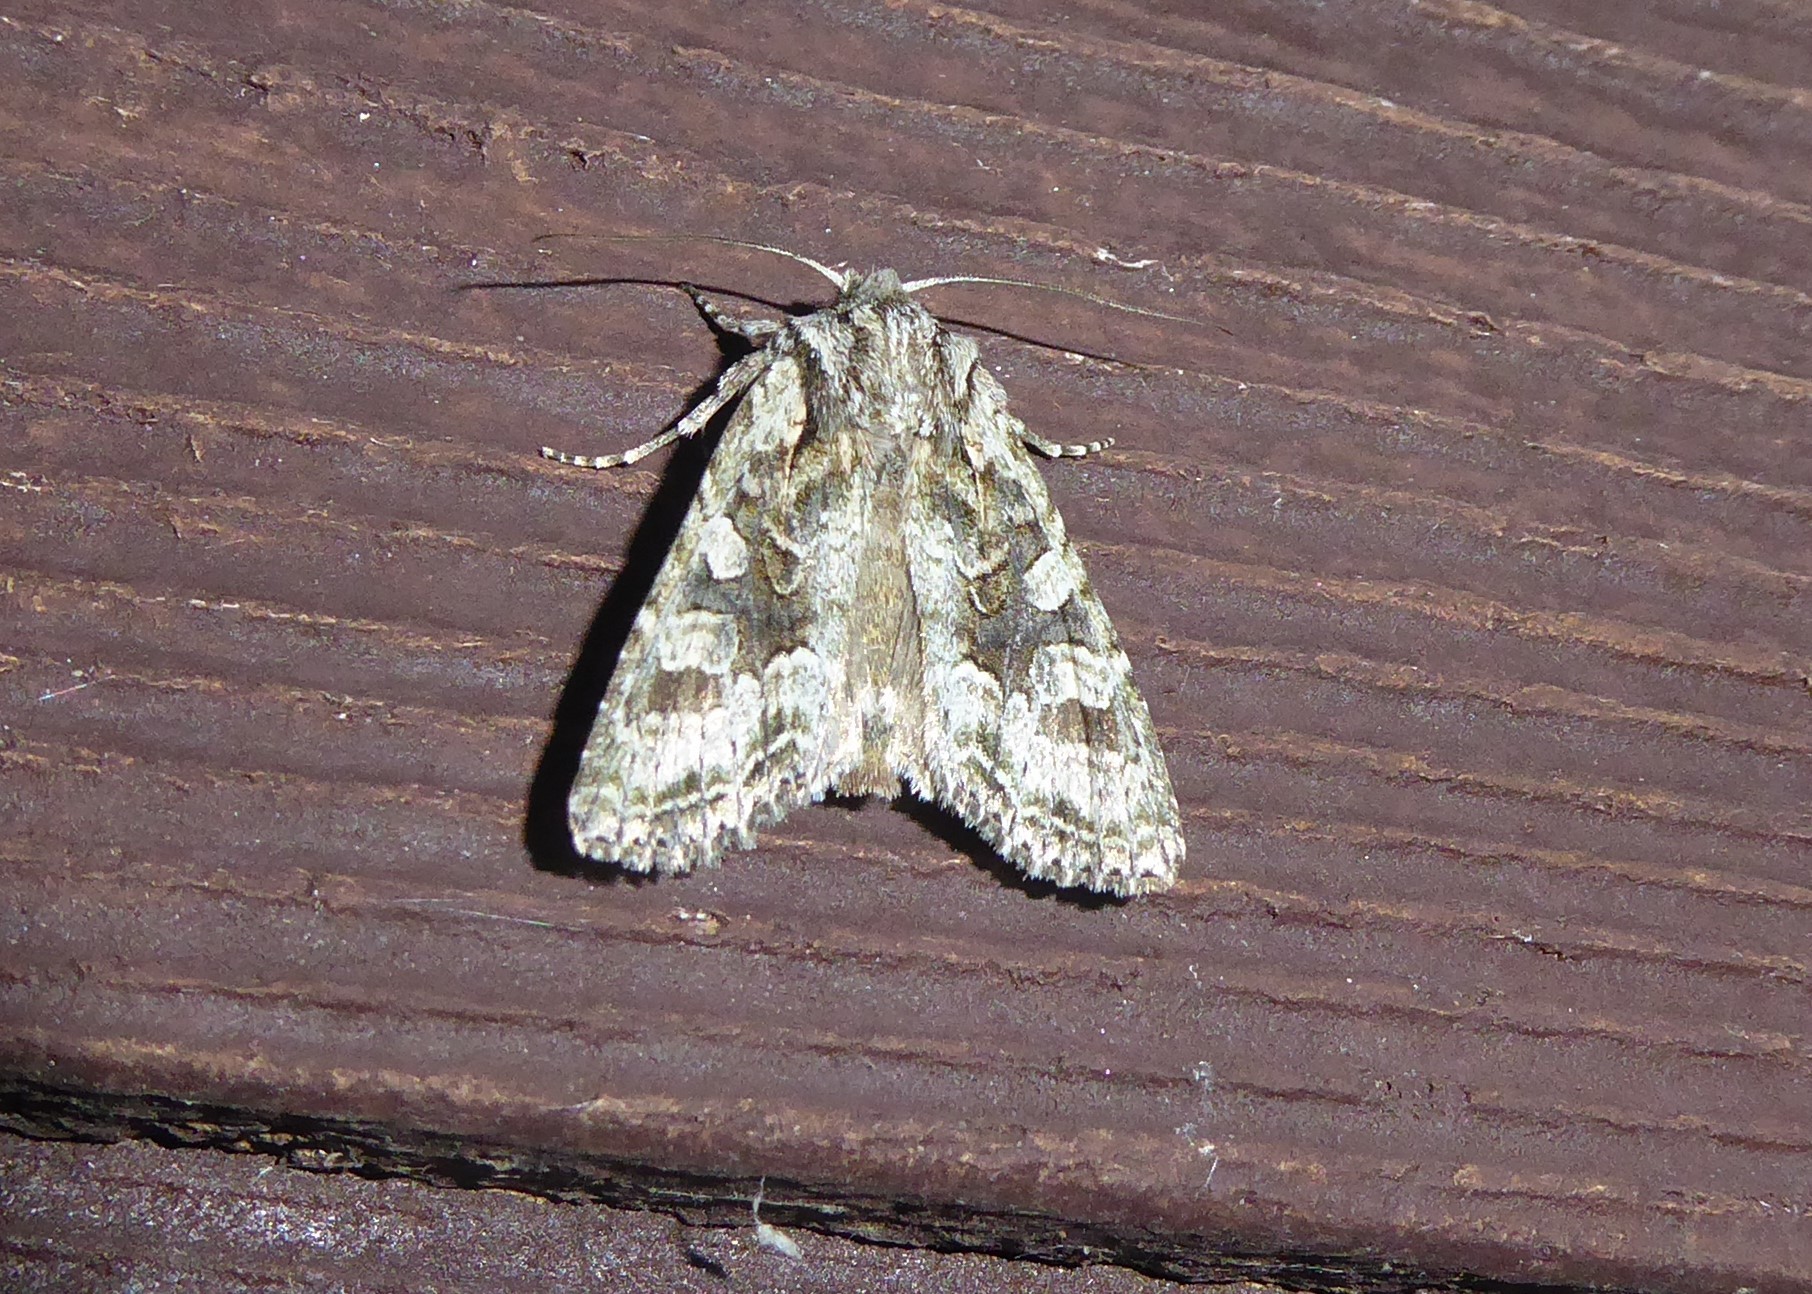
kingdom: Animalia
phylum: Arthropoda
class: Insecta
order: Lepidoptera
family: Noctuidae
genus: Ichneutica
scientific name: Ichneutica mutans
